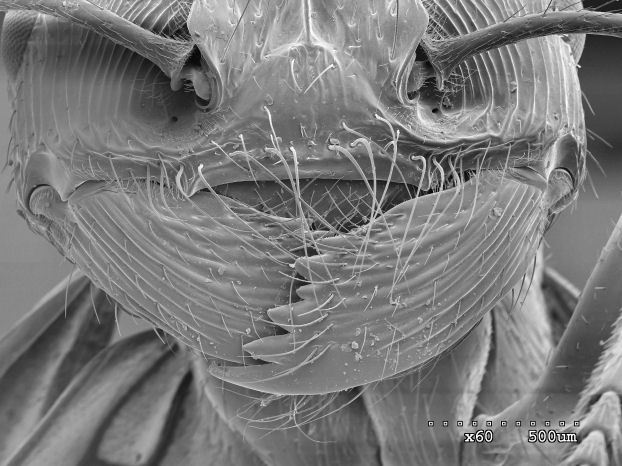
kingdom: Animalia
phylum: Arthropoda
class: Insecta
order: Hymenoptera
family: Formicidae
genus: Pogonomyrmex
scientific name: Pogonomyrmex anzensis
